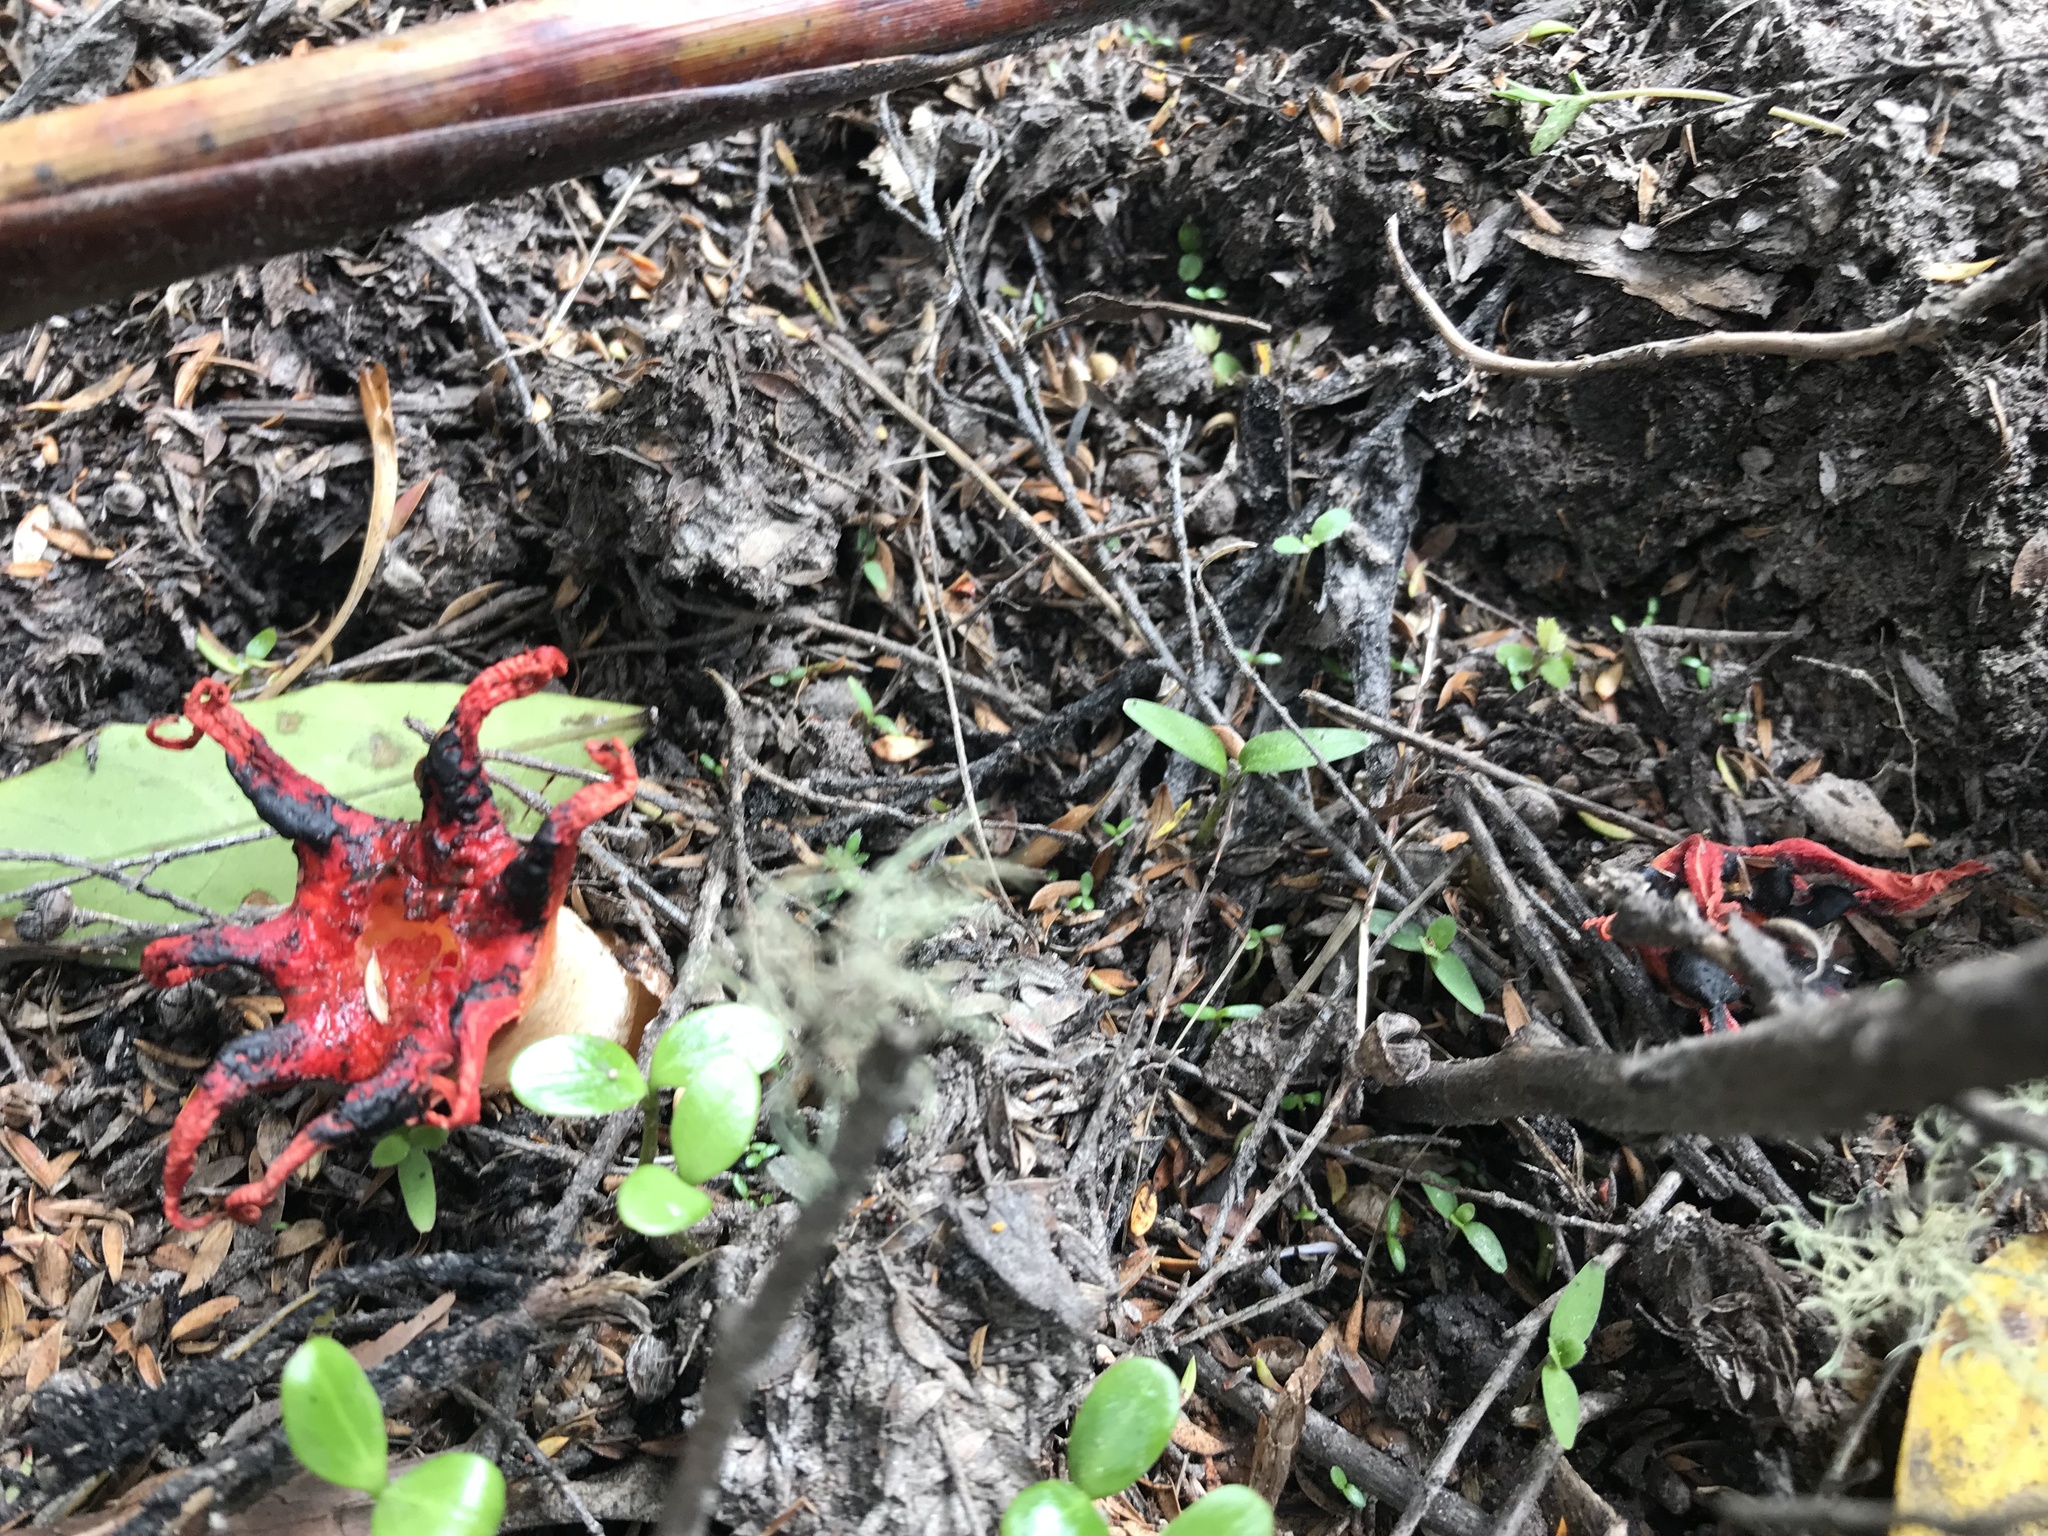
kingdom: Fungi
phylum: Basidiomycota
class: Agaricomycetes
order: Phallales
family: Phallaceae
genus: Aseroe
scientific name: Aseroe rubra
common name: Starfish fungus
